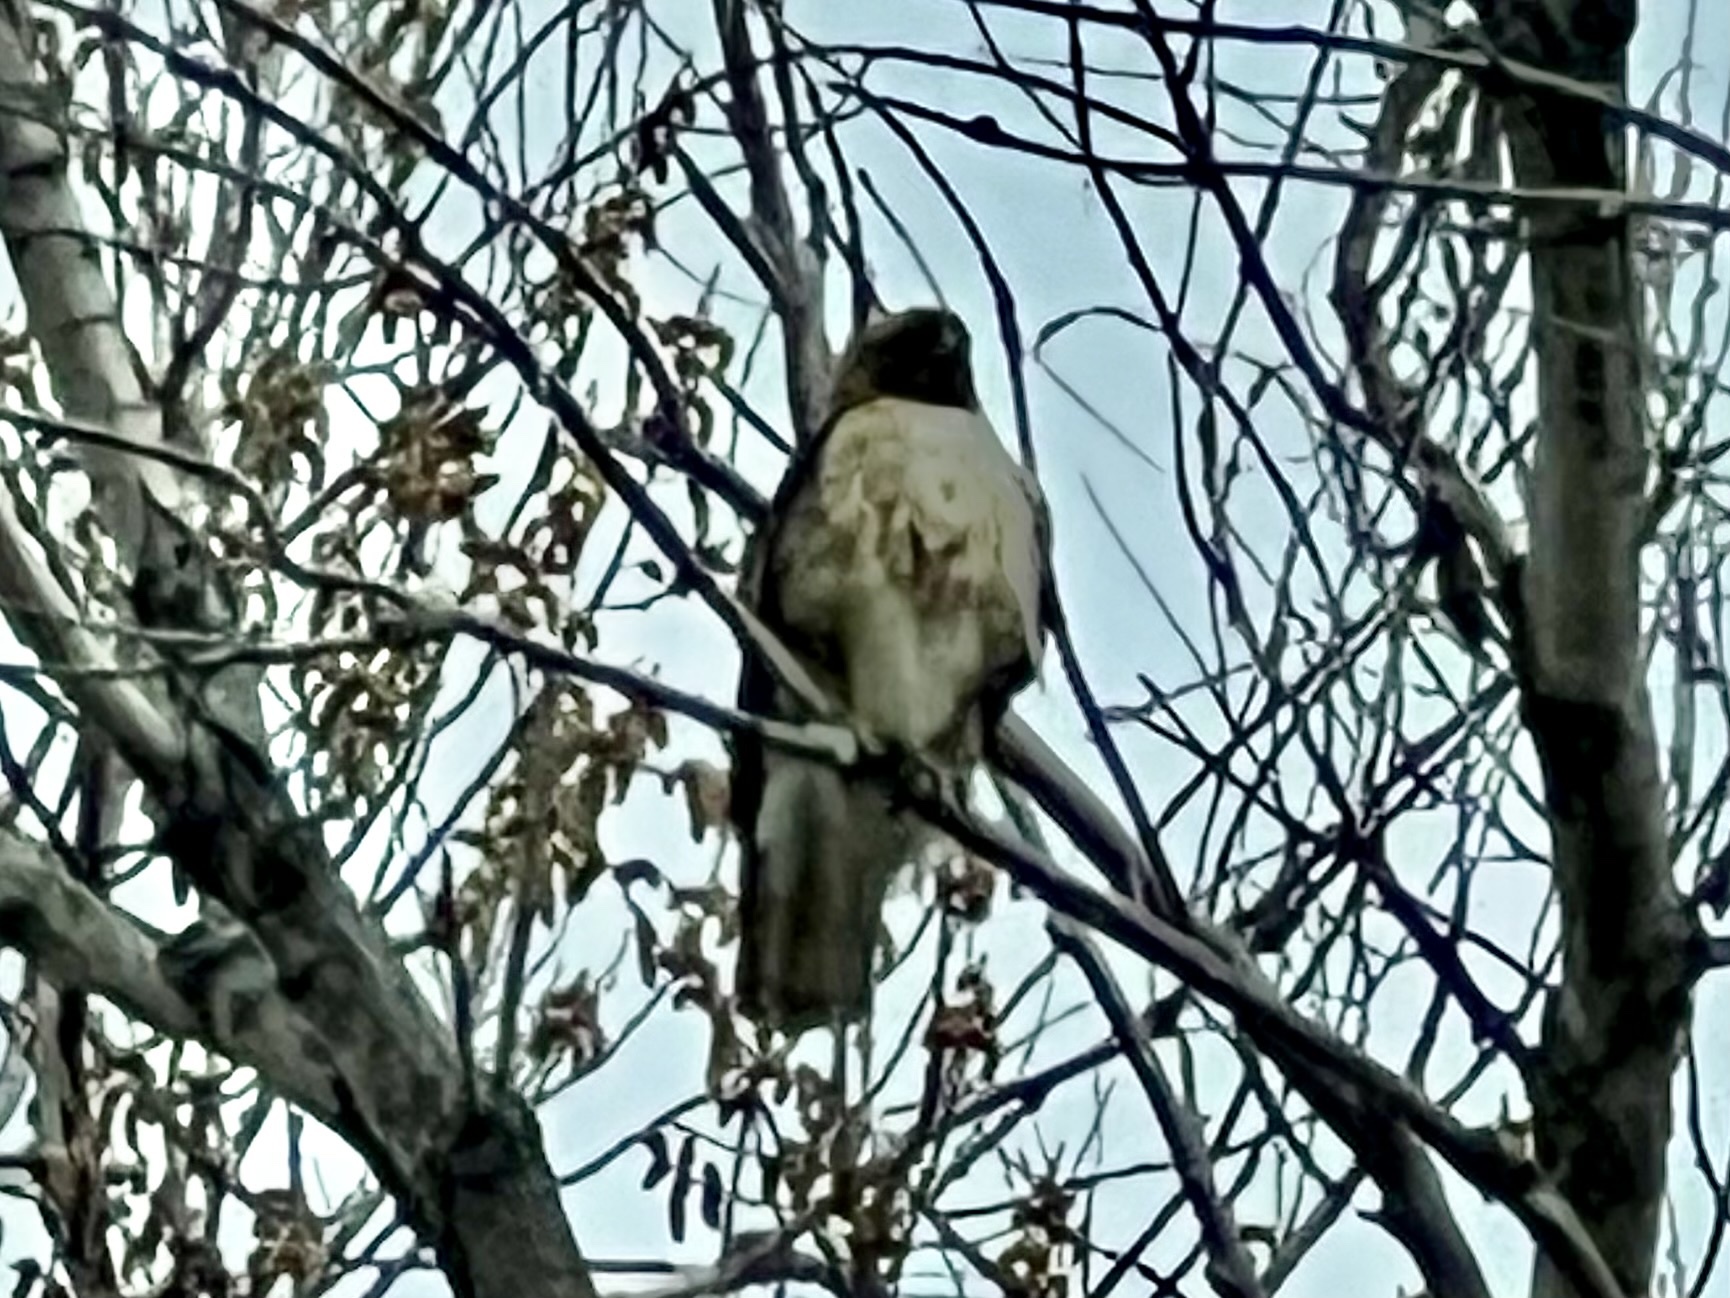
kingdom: Animalia
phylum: Chordata
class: Aves
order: Accipitriformes
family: Accipitridae
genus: Buteo
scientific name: Buteo jamaicensis
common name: Red-tailed hawk
